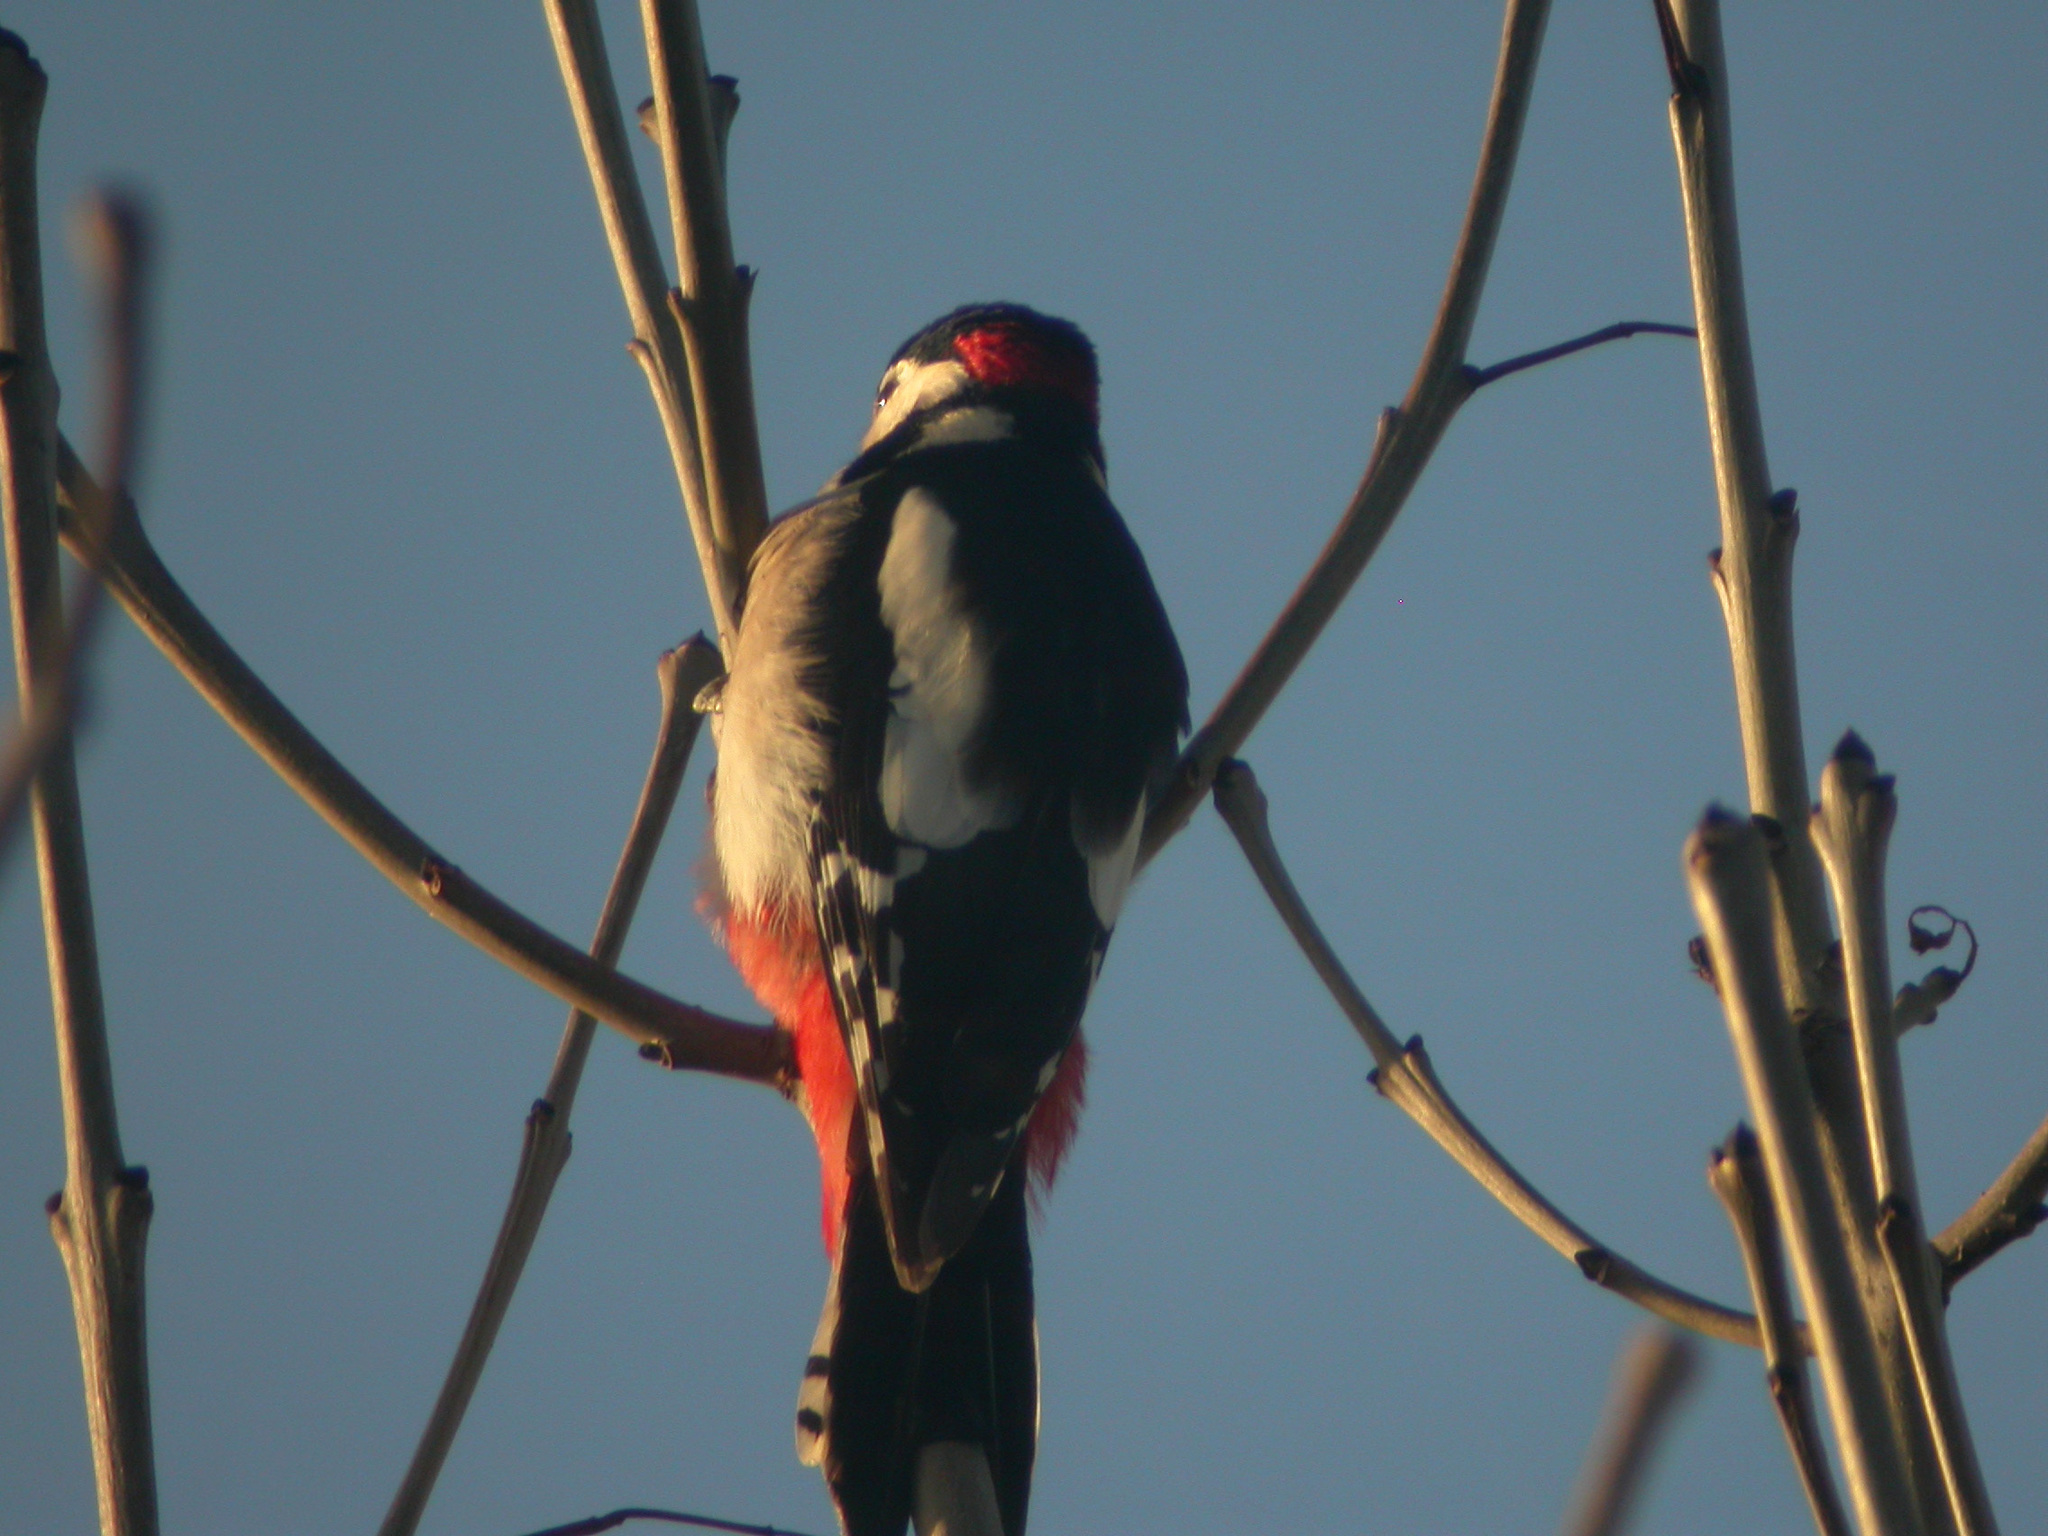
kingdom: Animalia
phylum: Chordata
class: Aves
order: Piciformes
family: Picidae
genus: Dendrocopos
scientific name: Dendrocopos major
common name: Great spotted woodpecker
